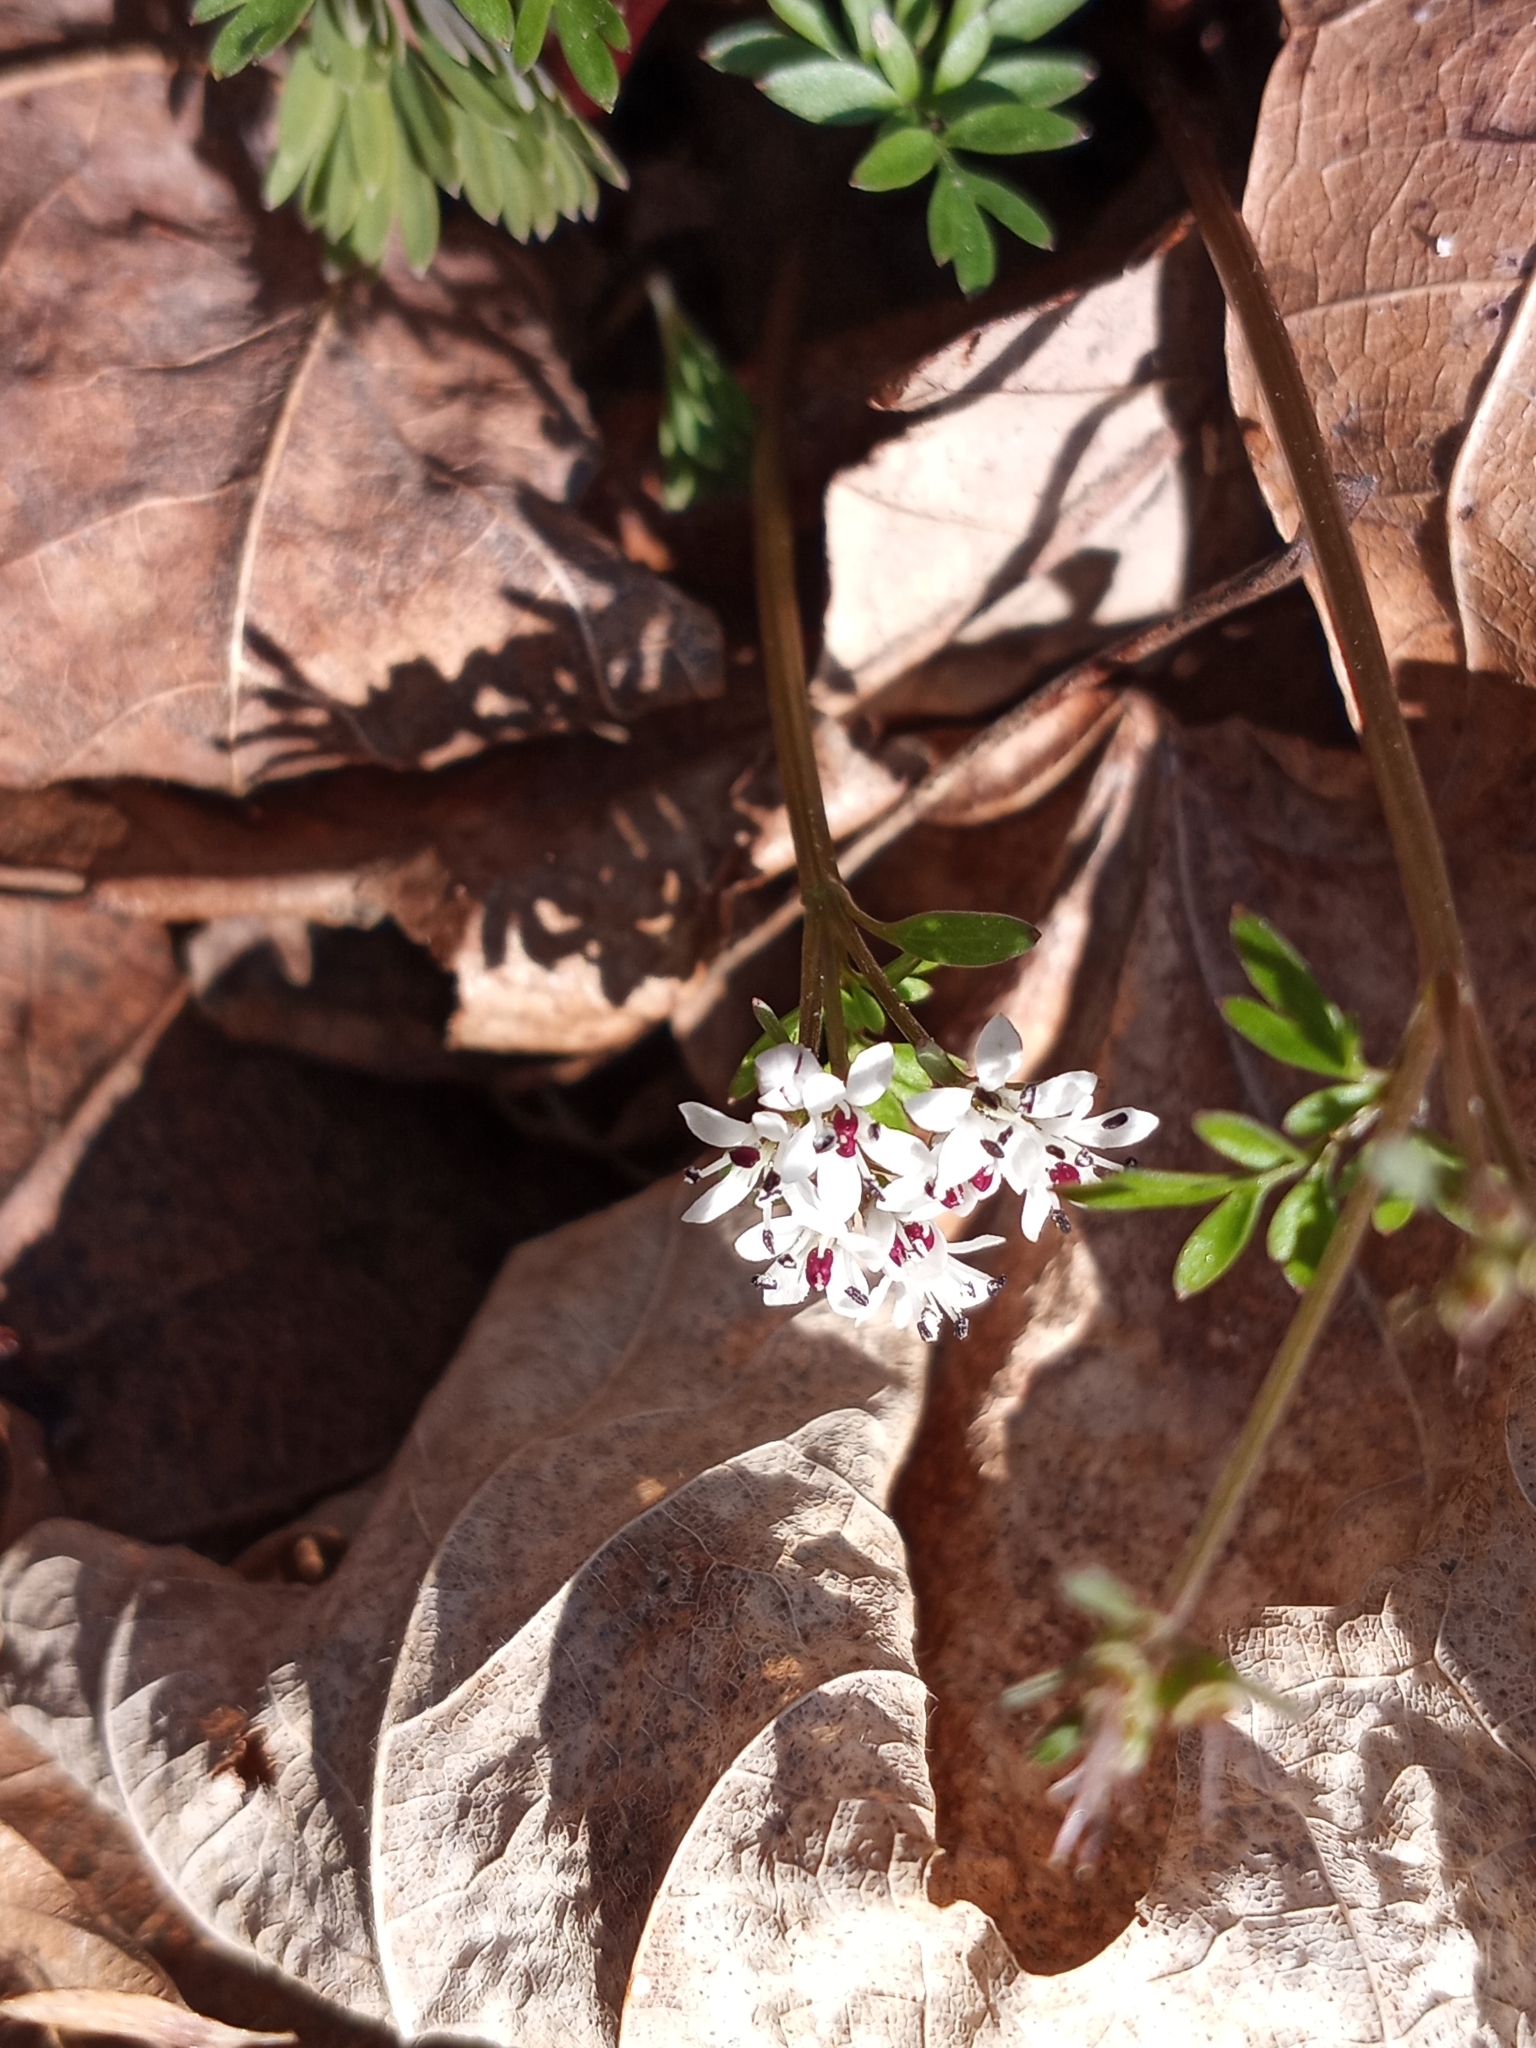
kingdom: Plantae
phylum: Tracheophyta
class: Magnoliopsida
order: Apiales
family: Apiaceae
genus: Erigenia
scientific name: Erigenia bulbosa
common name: Pepper-and-salt
